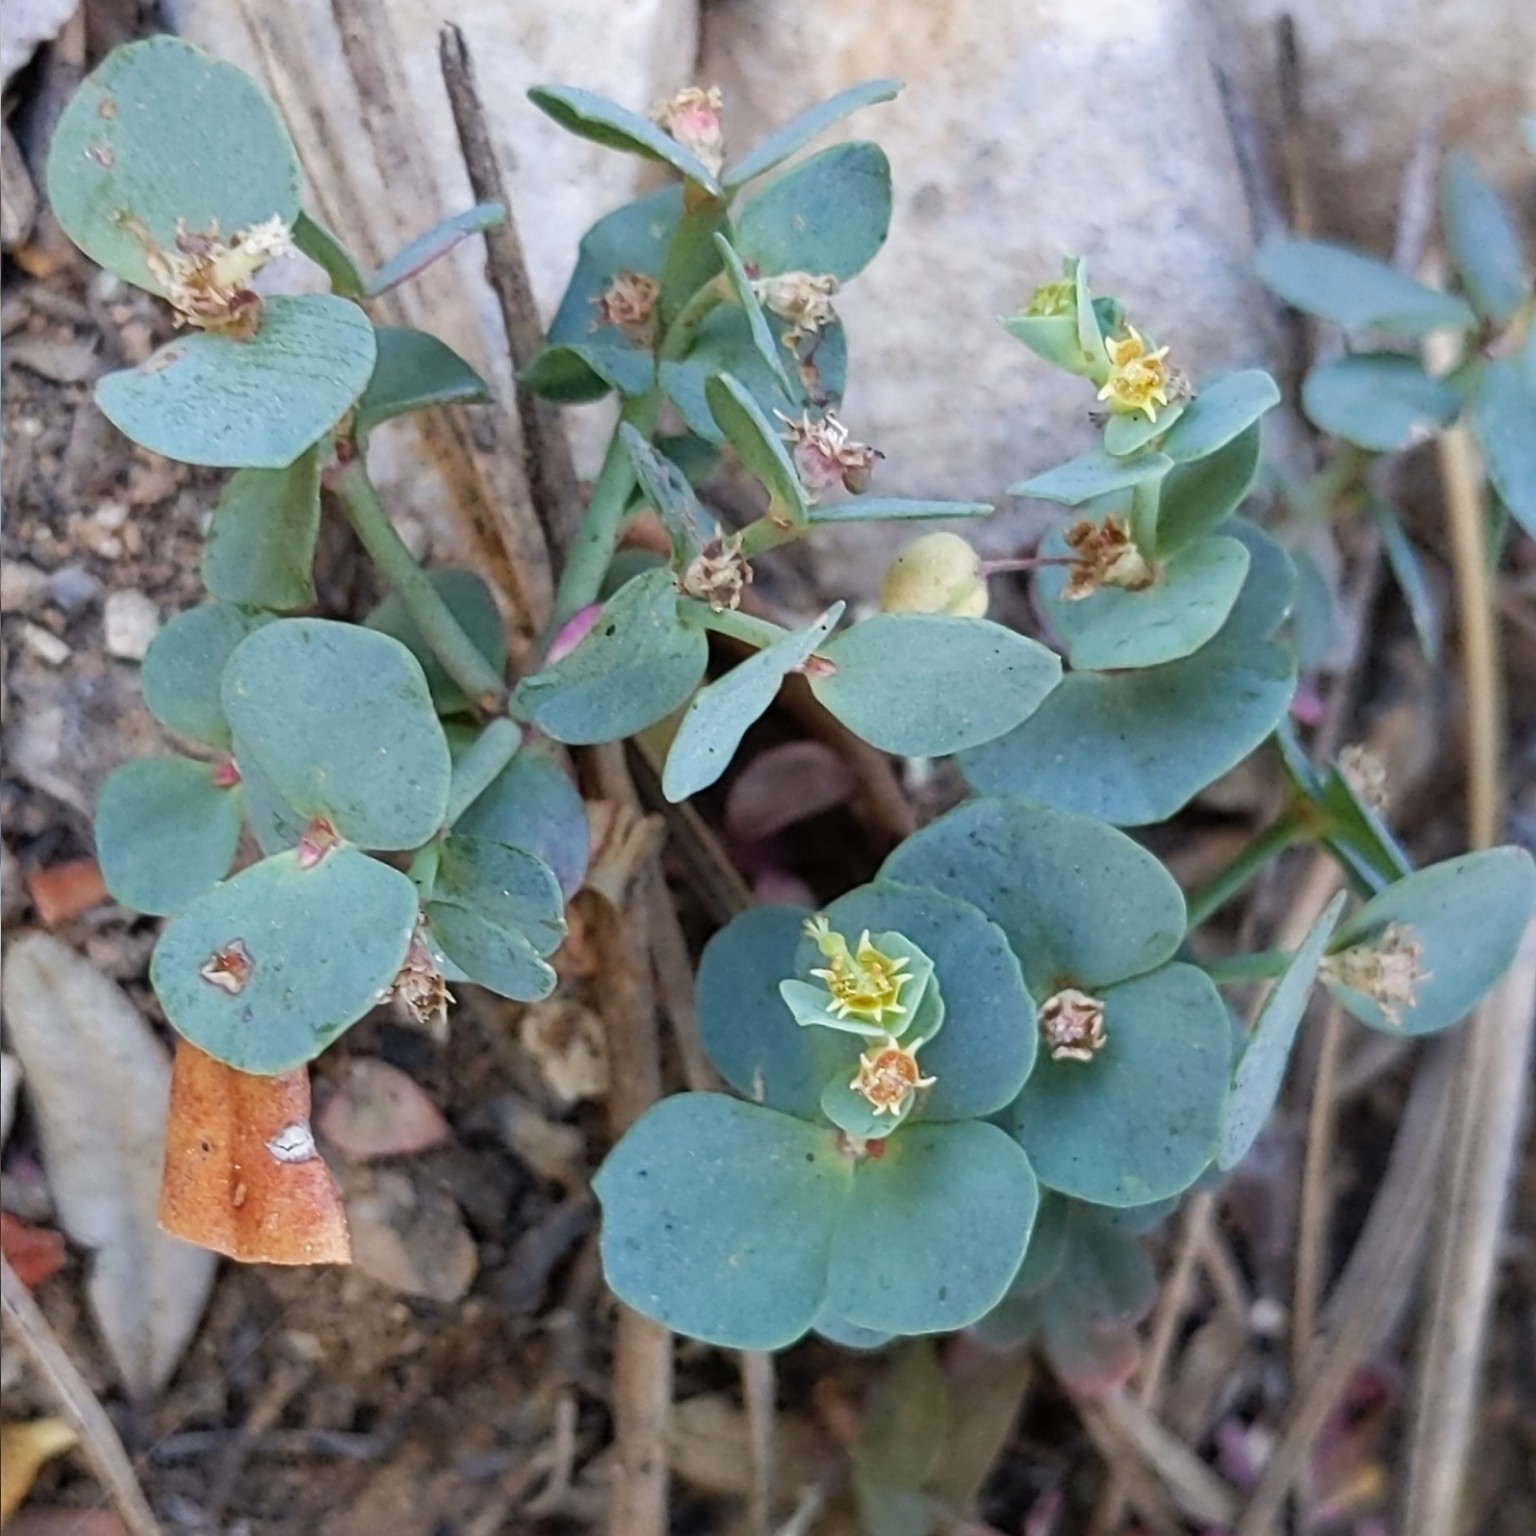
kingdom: Plantae
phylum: Tracheophyta
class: Magnoliopsida
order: Malpighiales
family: Euphorbiaceae
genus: Euphorbia
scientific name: Euphorbia brachycera
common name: Shorthorn spurge
